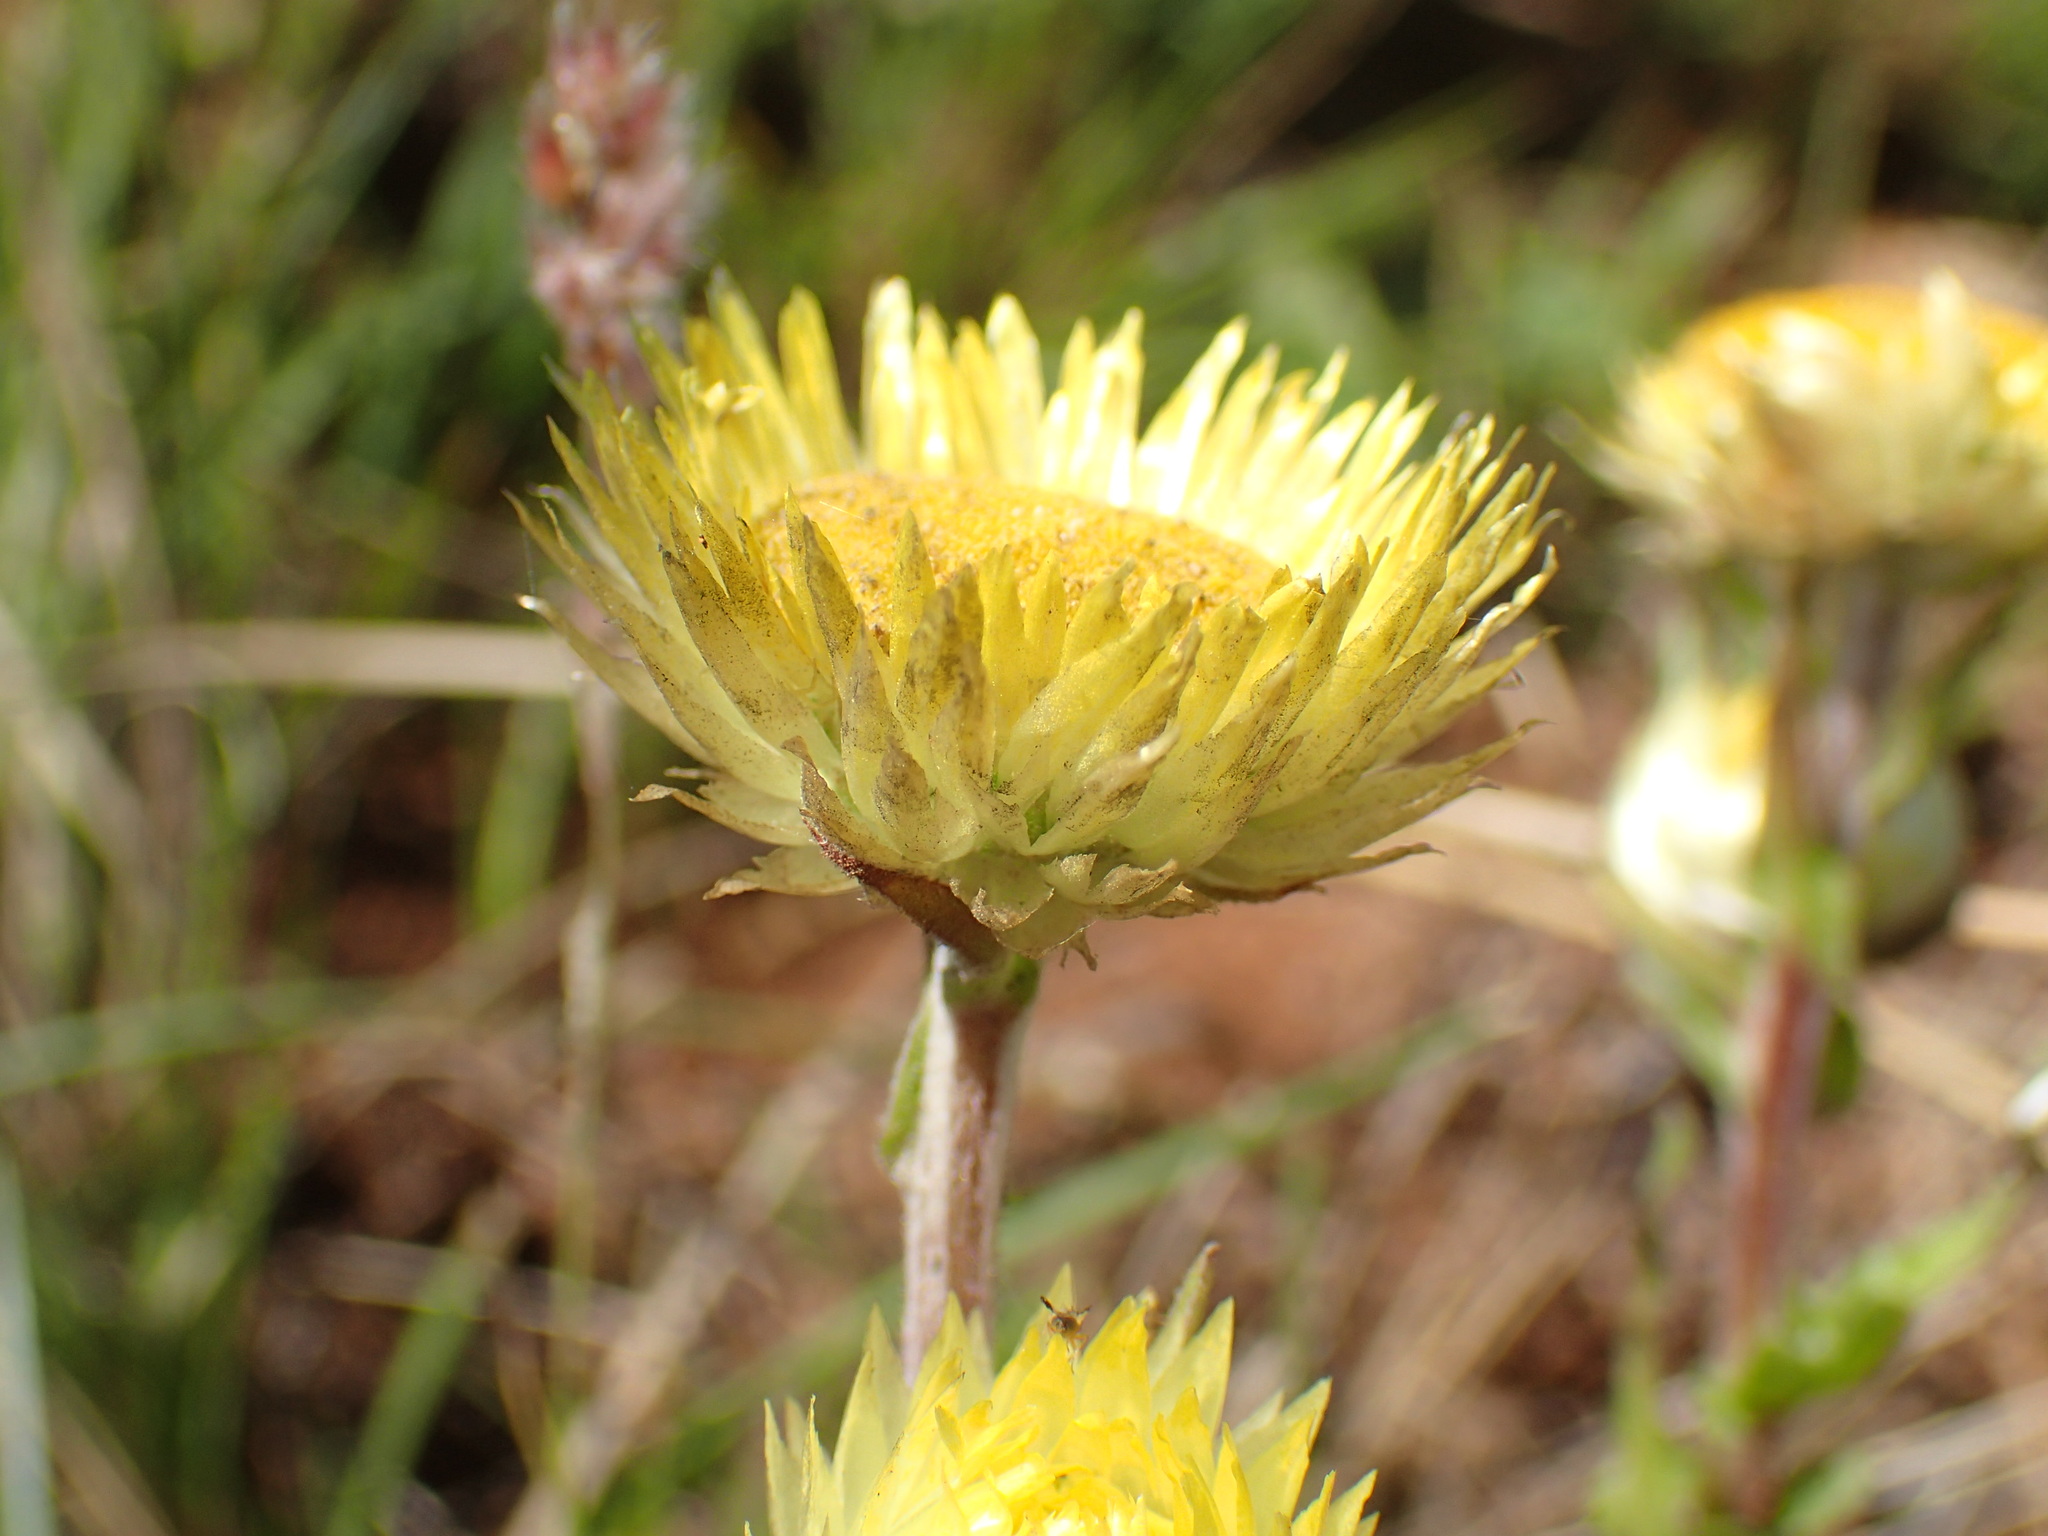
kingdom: Plantae
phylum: Tracheophyta
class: Magnoliopsida
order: Asterales
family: Asteraceae
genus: Helichrysum
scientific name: Helichrysum aureum
